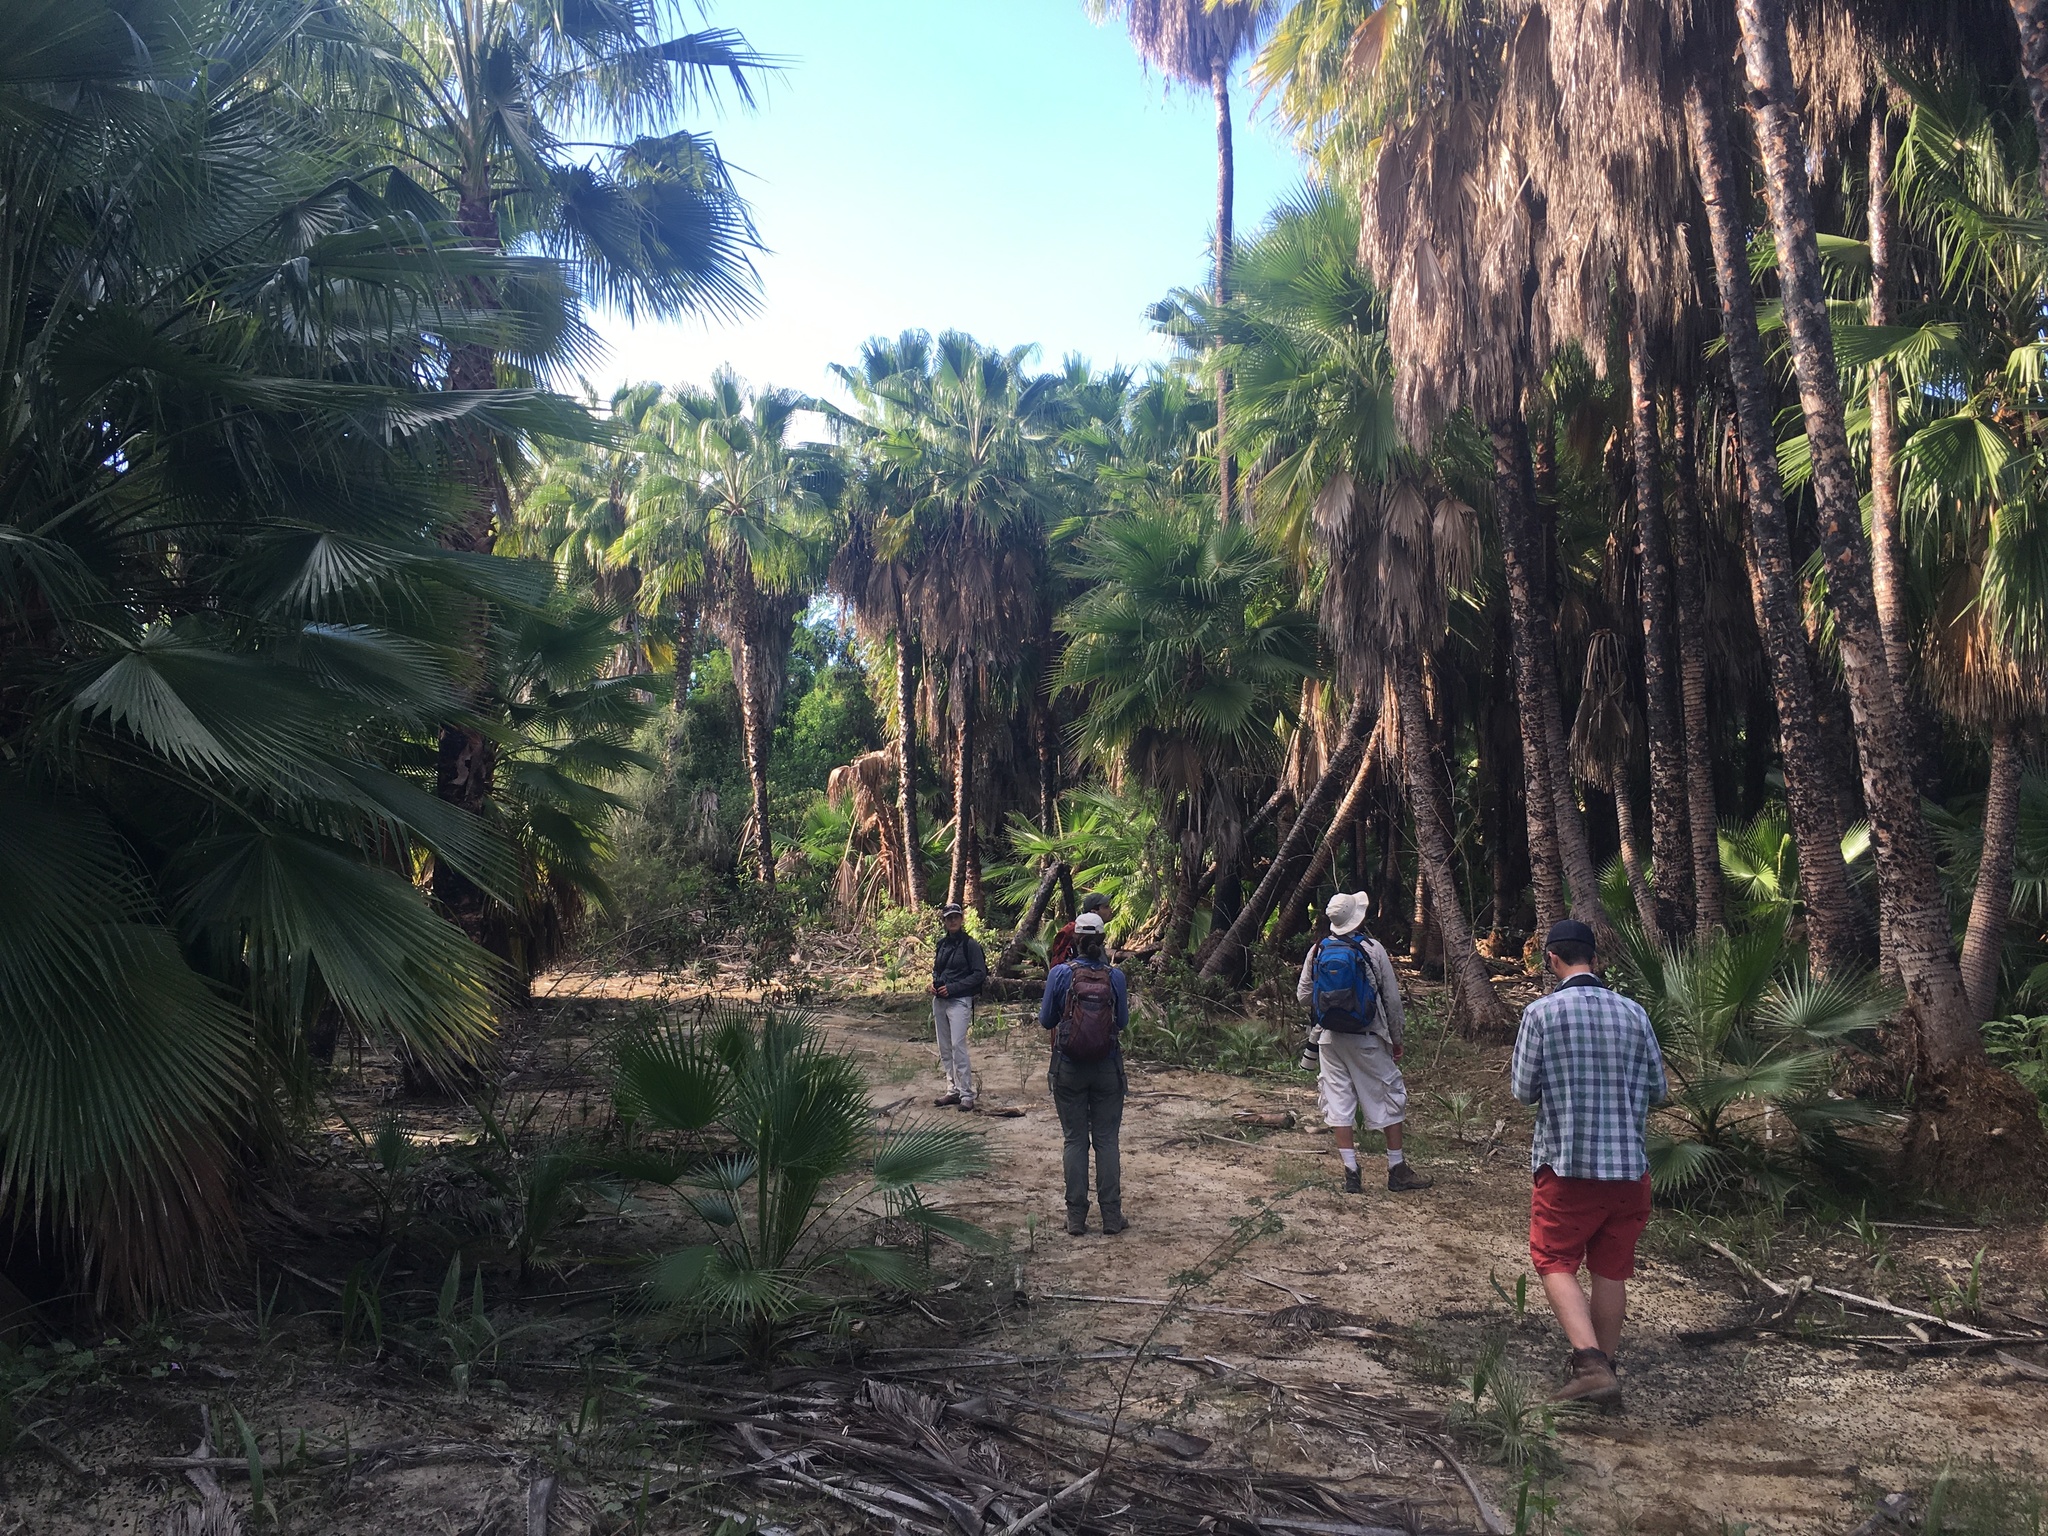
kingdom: Plantae
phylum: Tracheophyta
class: Liliopsida
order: Arecales
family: Arecaceae
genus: Washingtonia
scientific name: Washingtonia robusta
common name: Mexican fan palm
